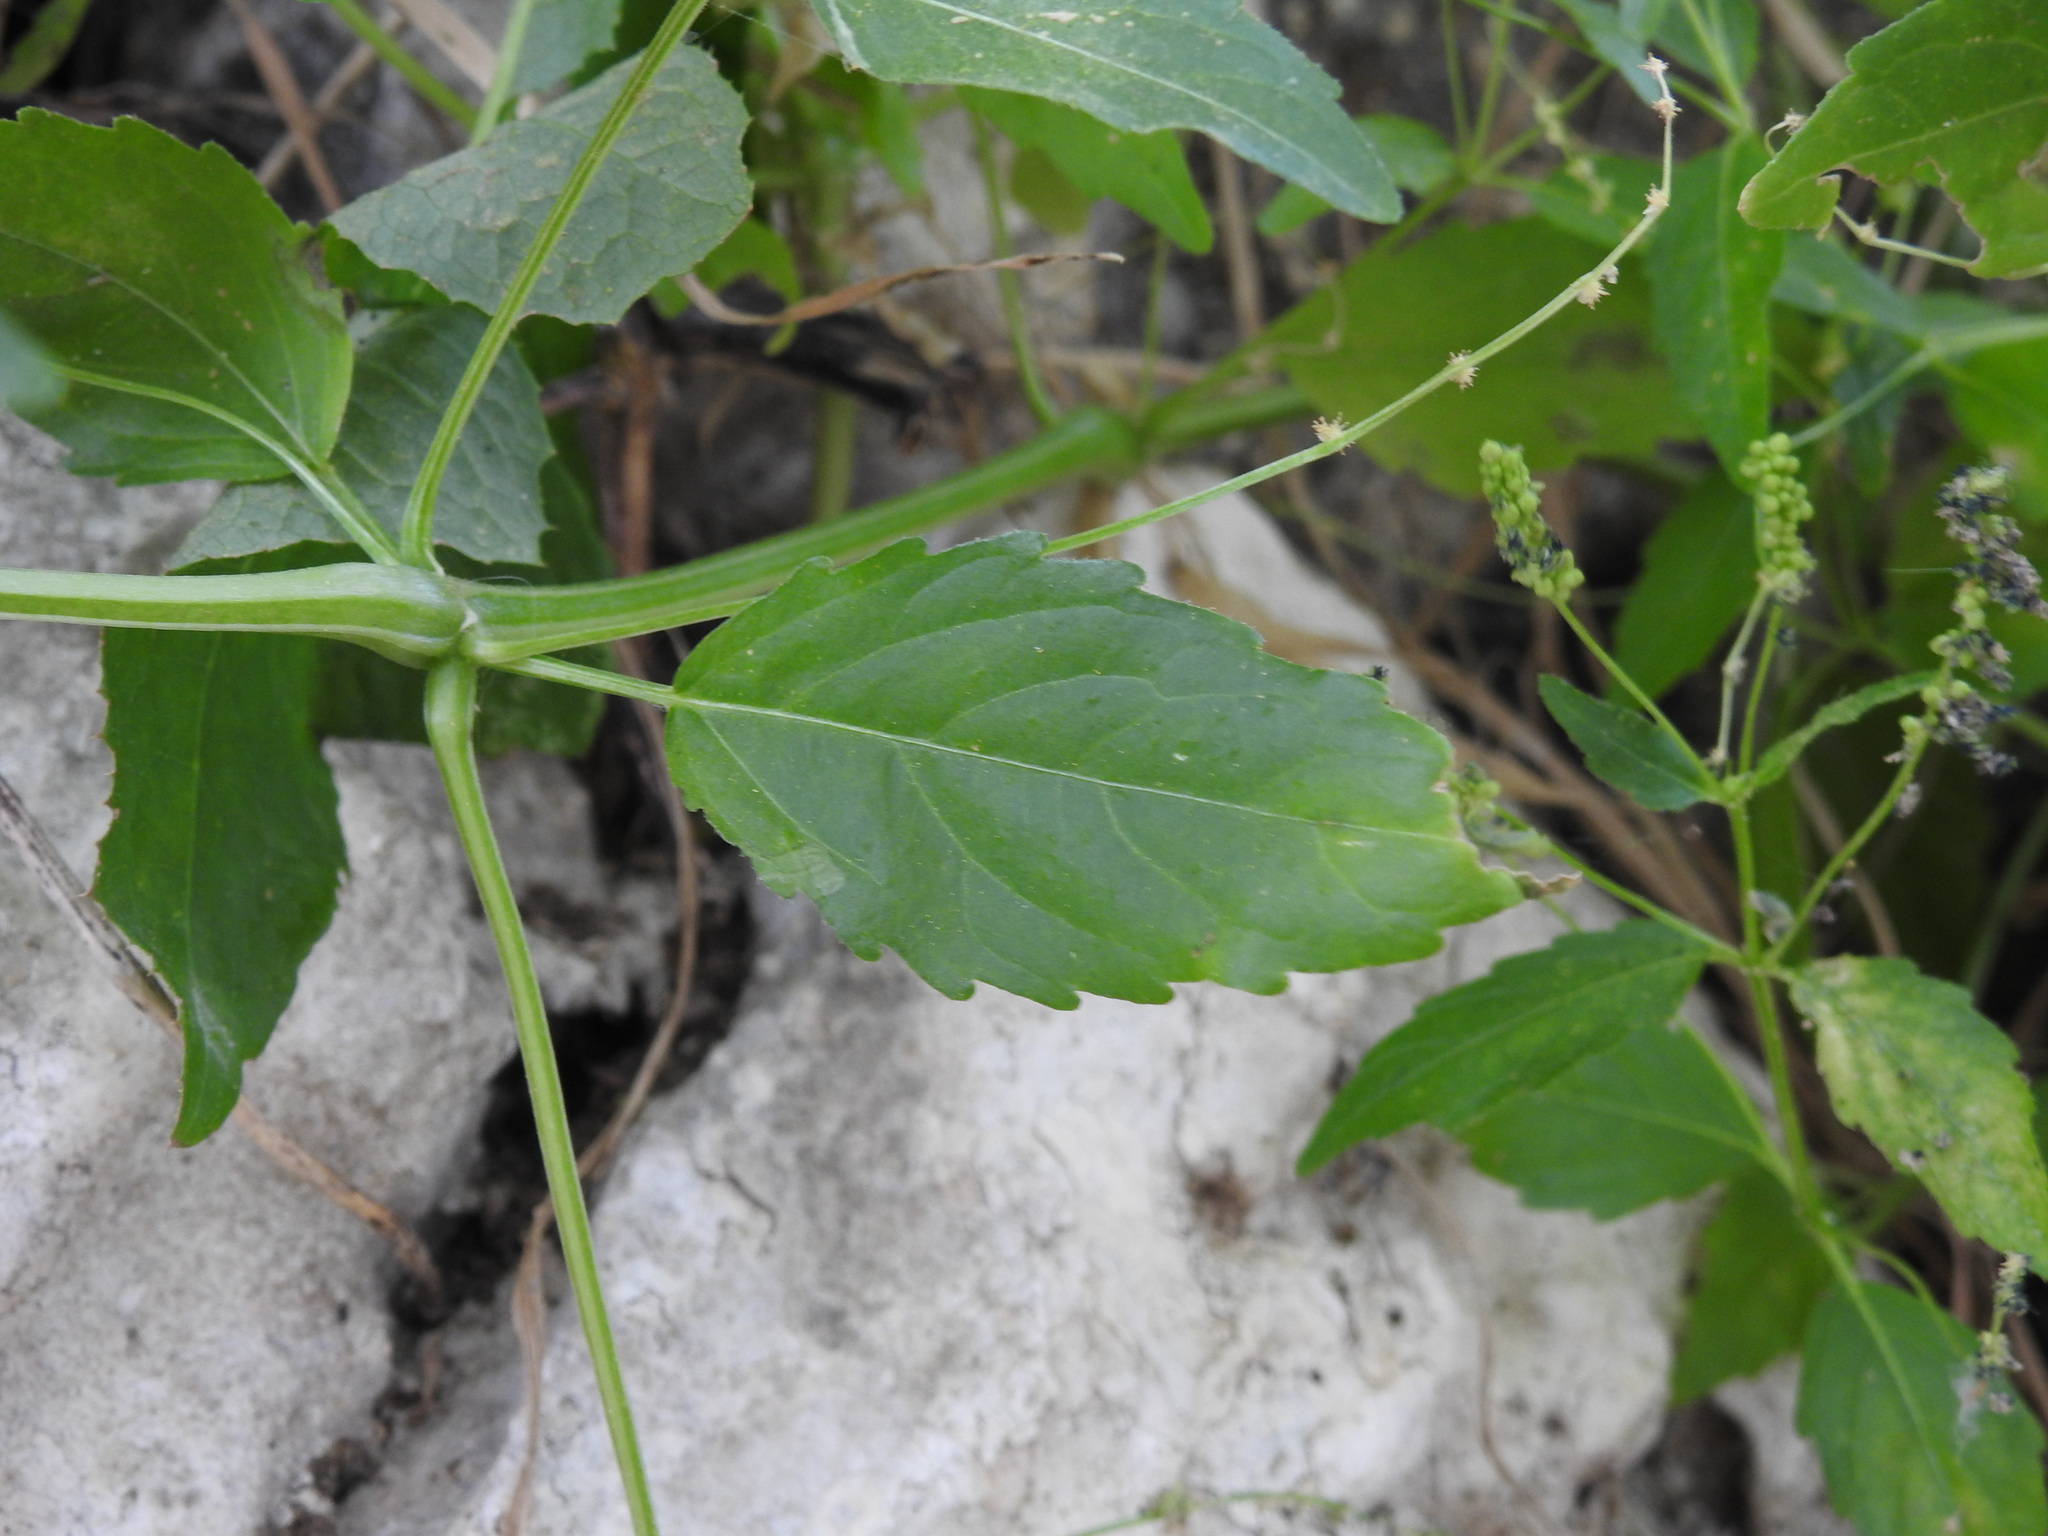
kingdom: Plantae
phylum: Tracheophyta
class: Magnoliopsida
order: Malpighiales
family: Euphorbiaceae
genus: Mercurialis
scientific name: Mercurialis annua
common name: Annual mercury
